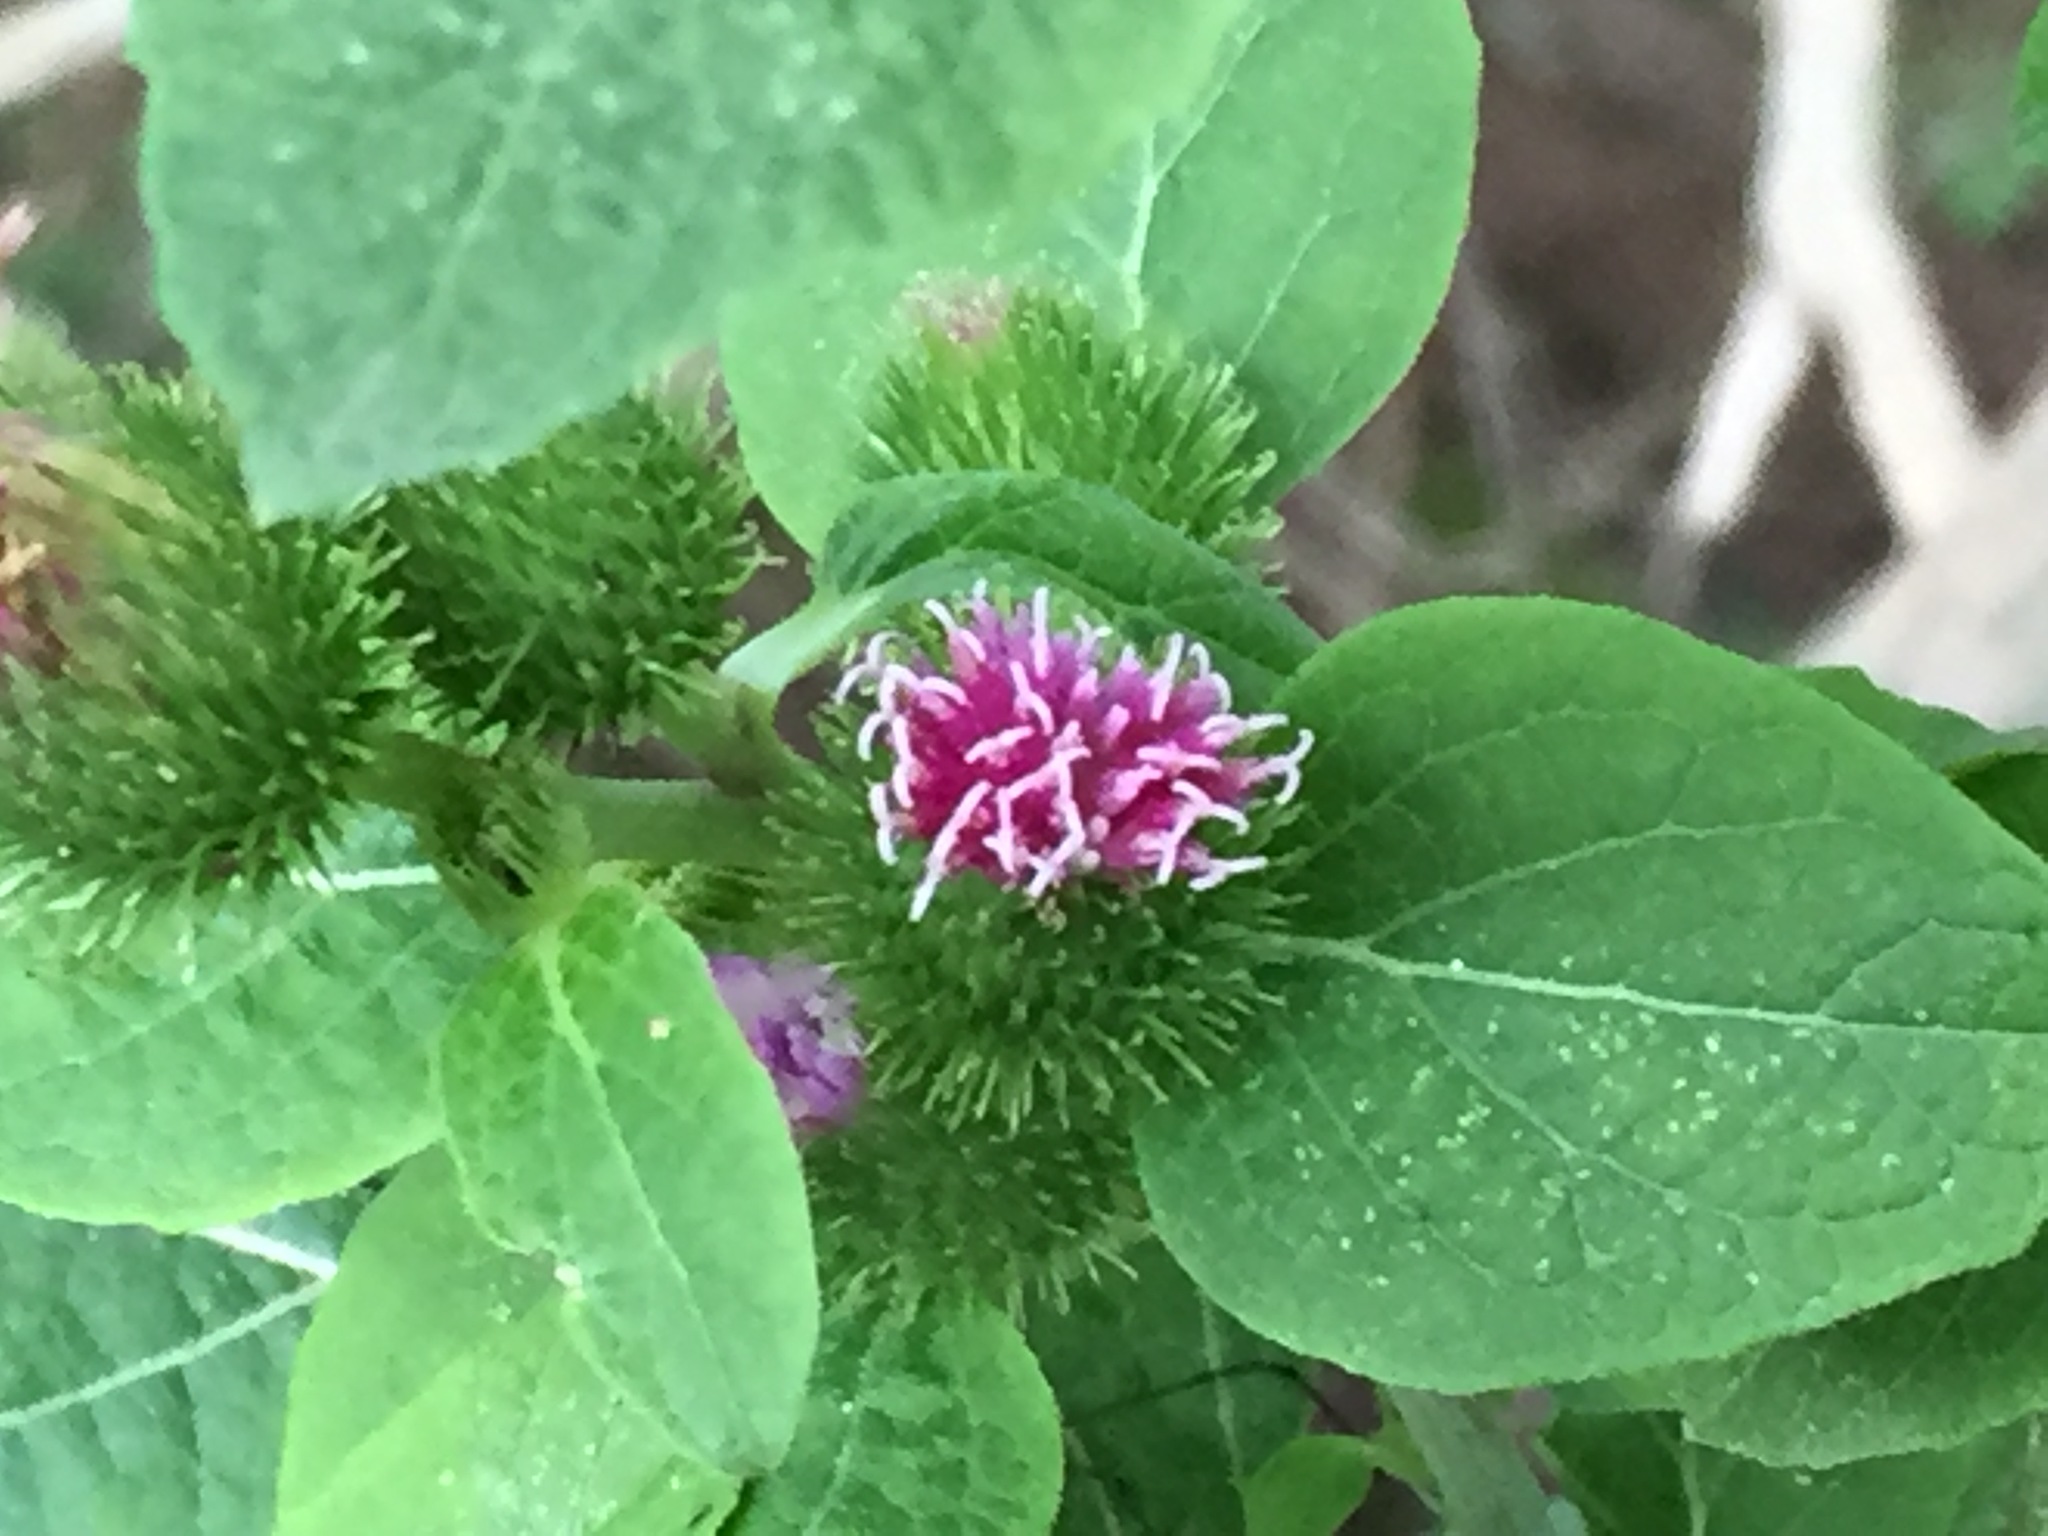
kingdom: Plantae
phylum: Tracheophyta
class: Magnoliopsida
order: Asterales
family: Asteraceae
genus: Arctium
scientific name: Arctium minus
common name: Lesser burdock
